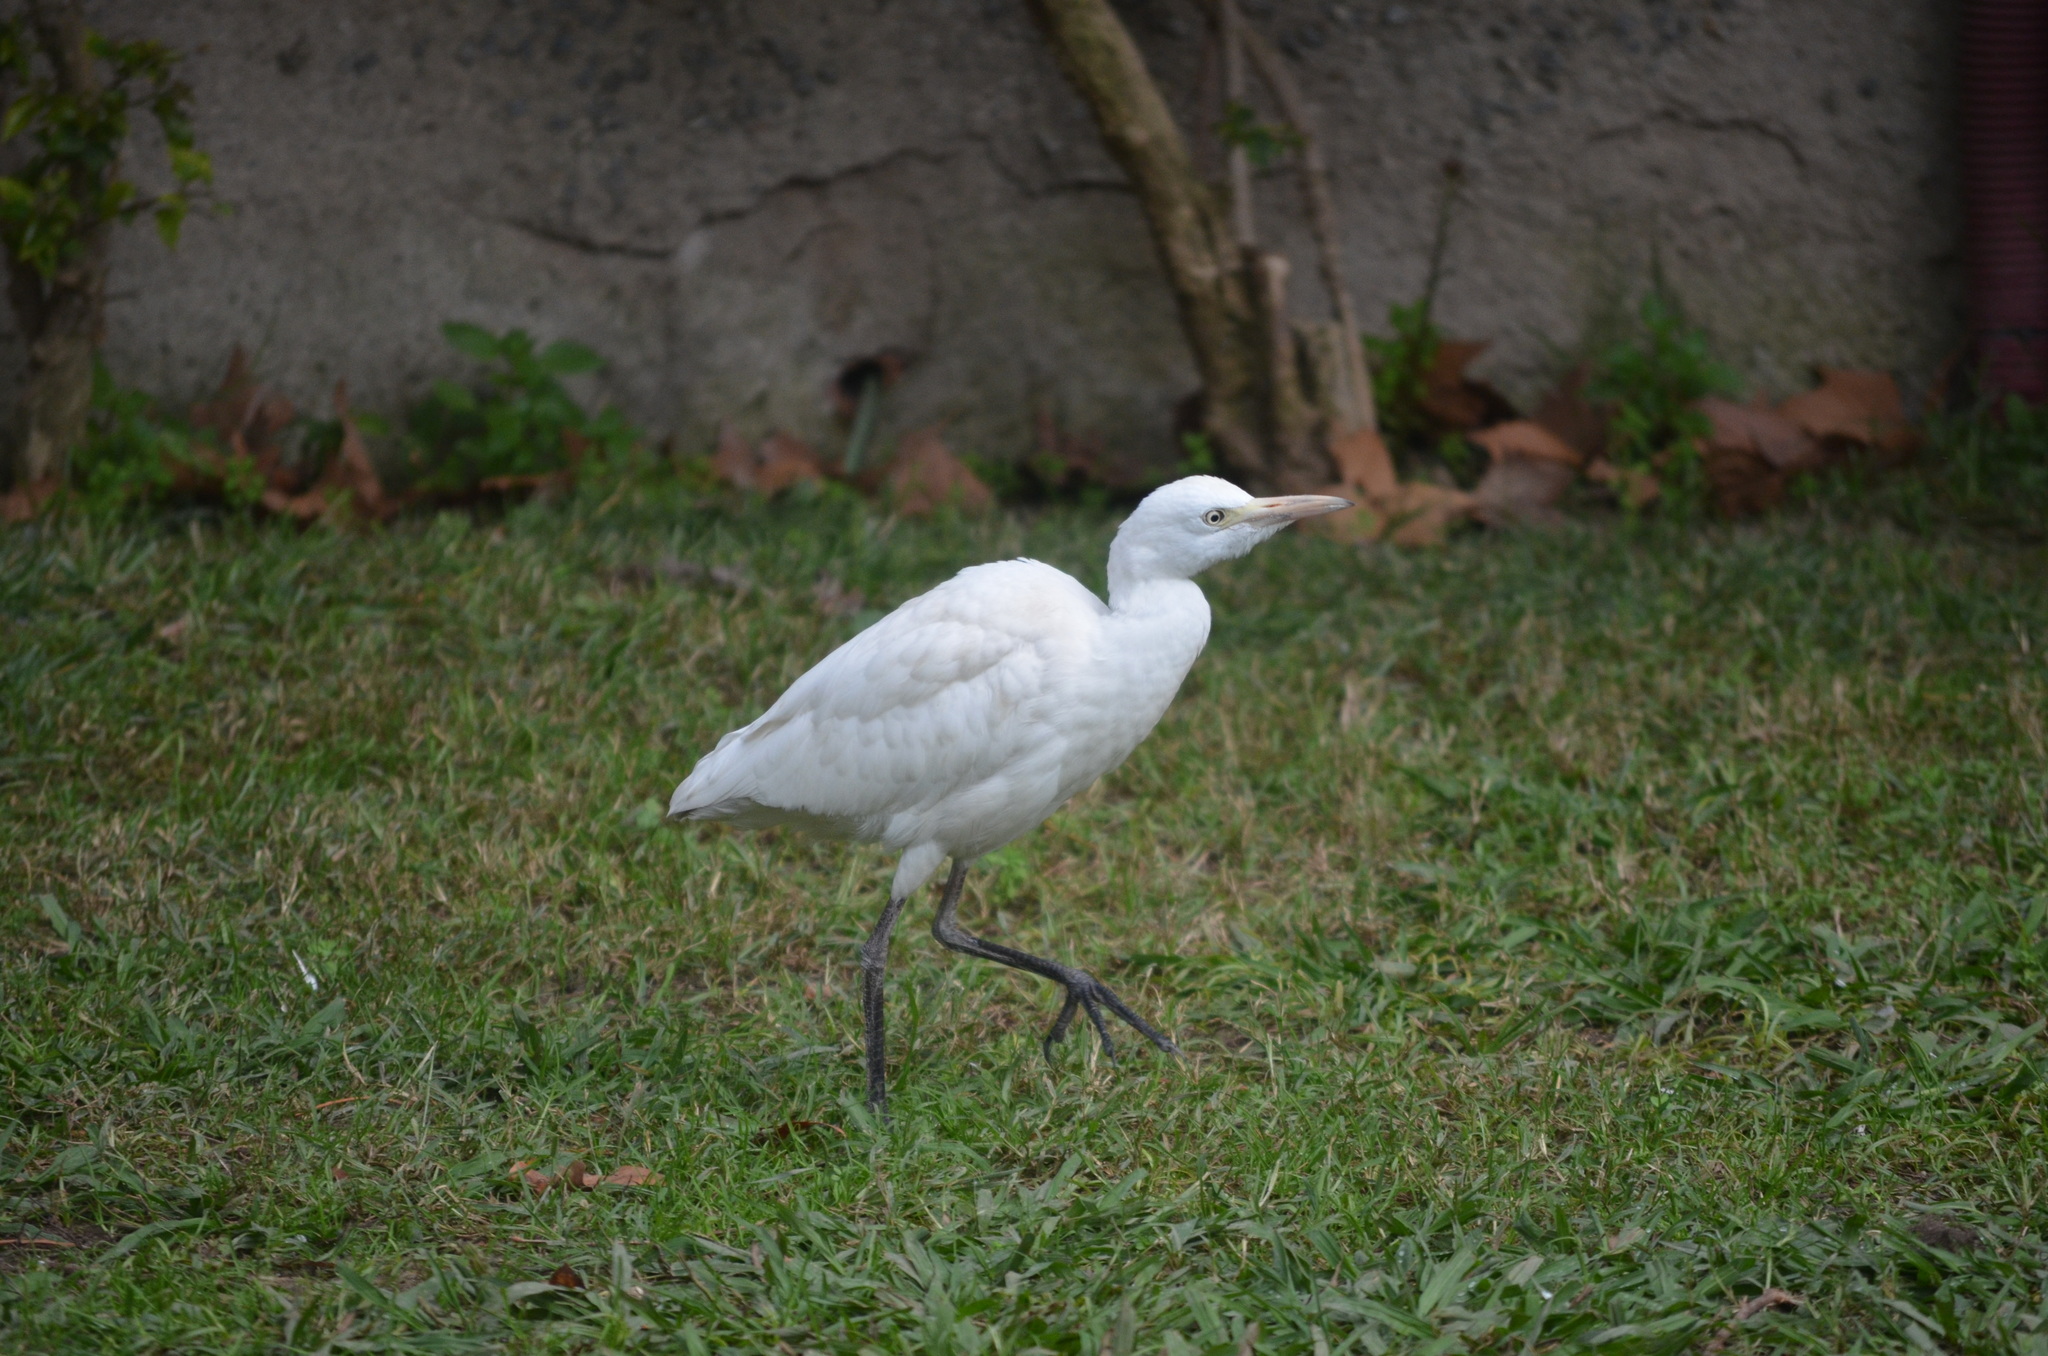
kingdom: Animalia
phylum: Chordata
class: Aves
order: Pelecaniformes
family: Ardeidae
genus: Bubulcus
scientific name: Bubulcus ibis
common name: Cattle egret
